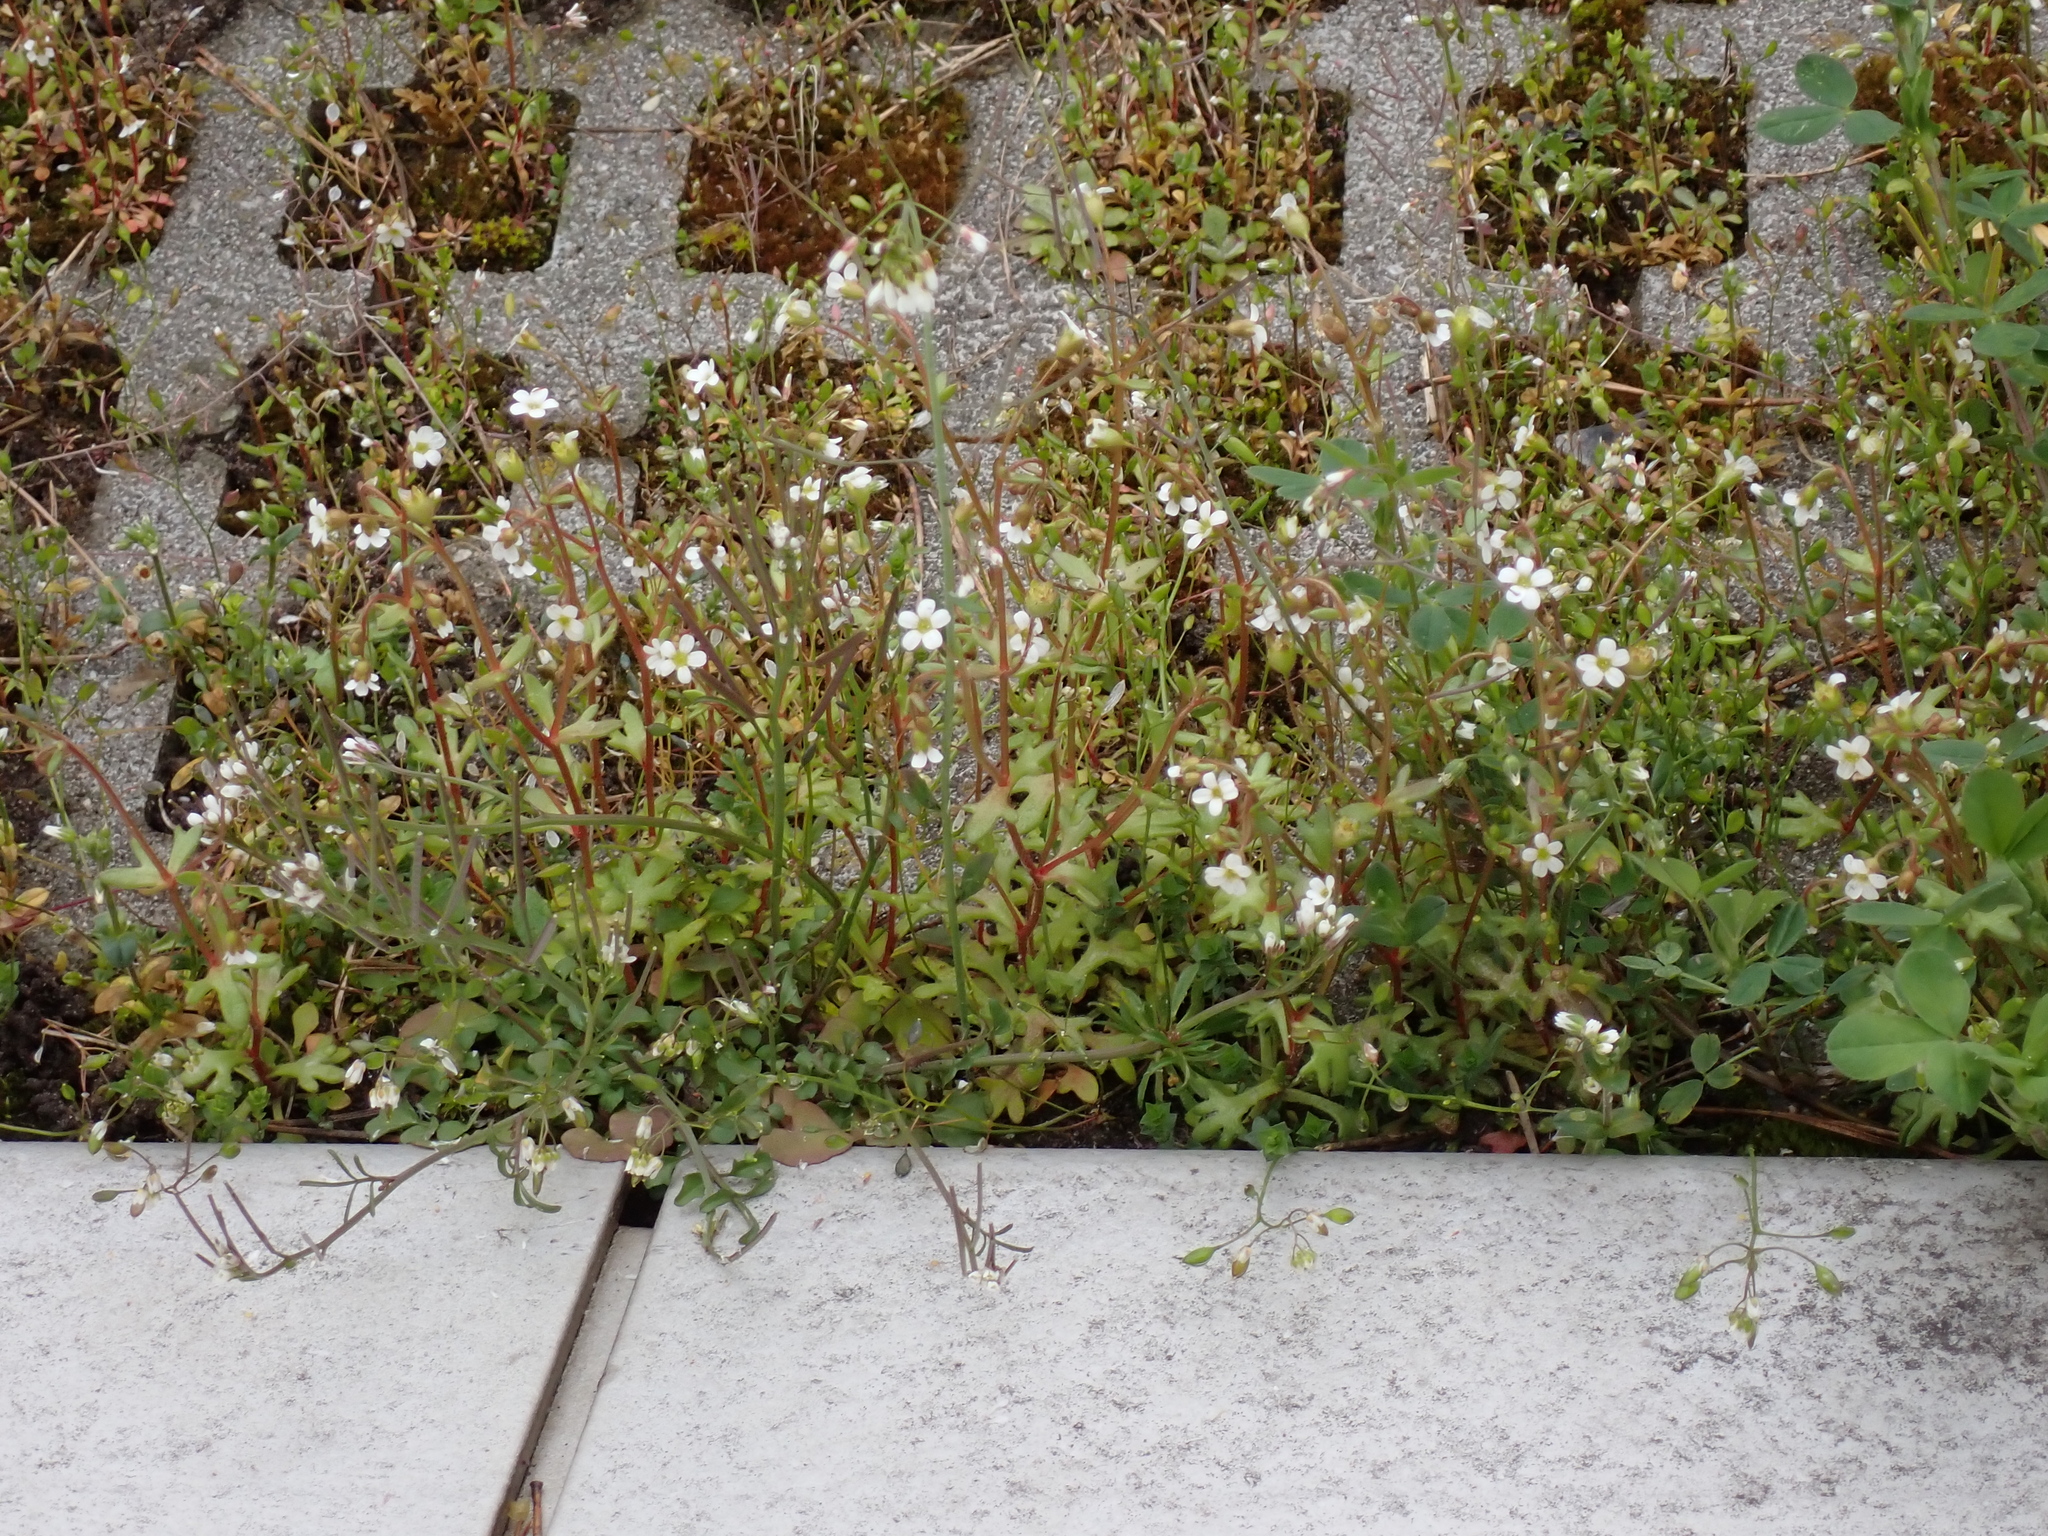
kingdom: Plantae
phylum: Tracheophyta
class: Magnoliopsida
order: Saxifragales
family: Saxifragaceae
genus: Saxifraga
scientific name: Saxifraga tridactylites
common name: Rue-leaved saxifrage
